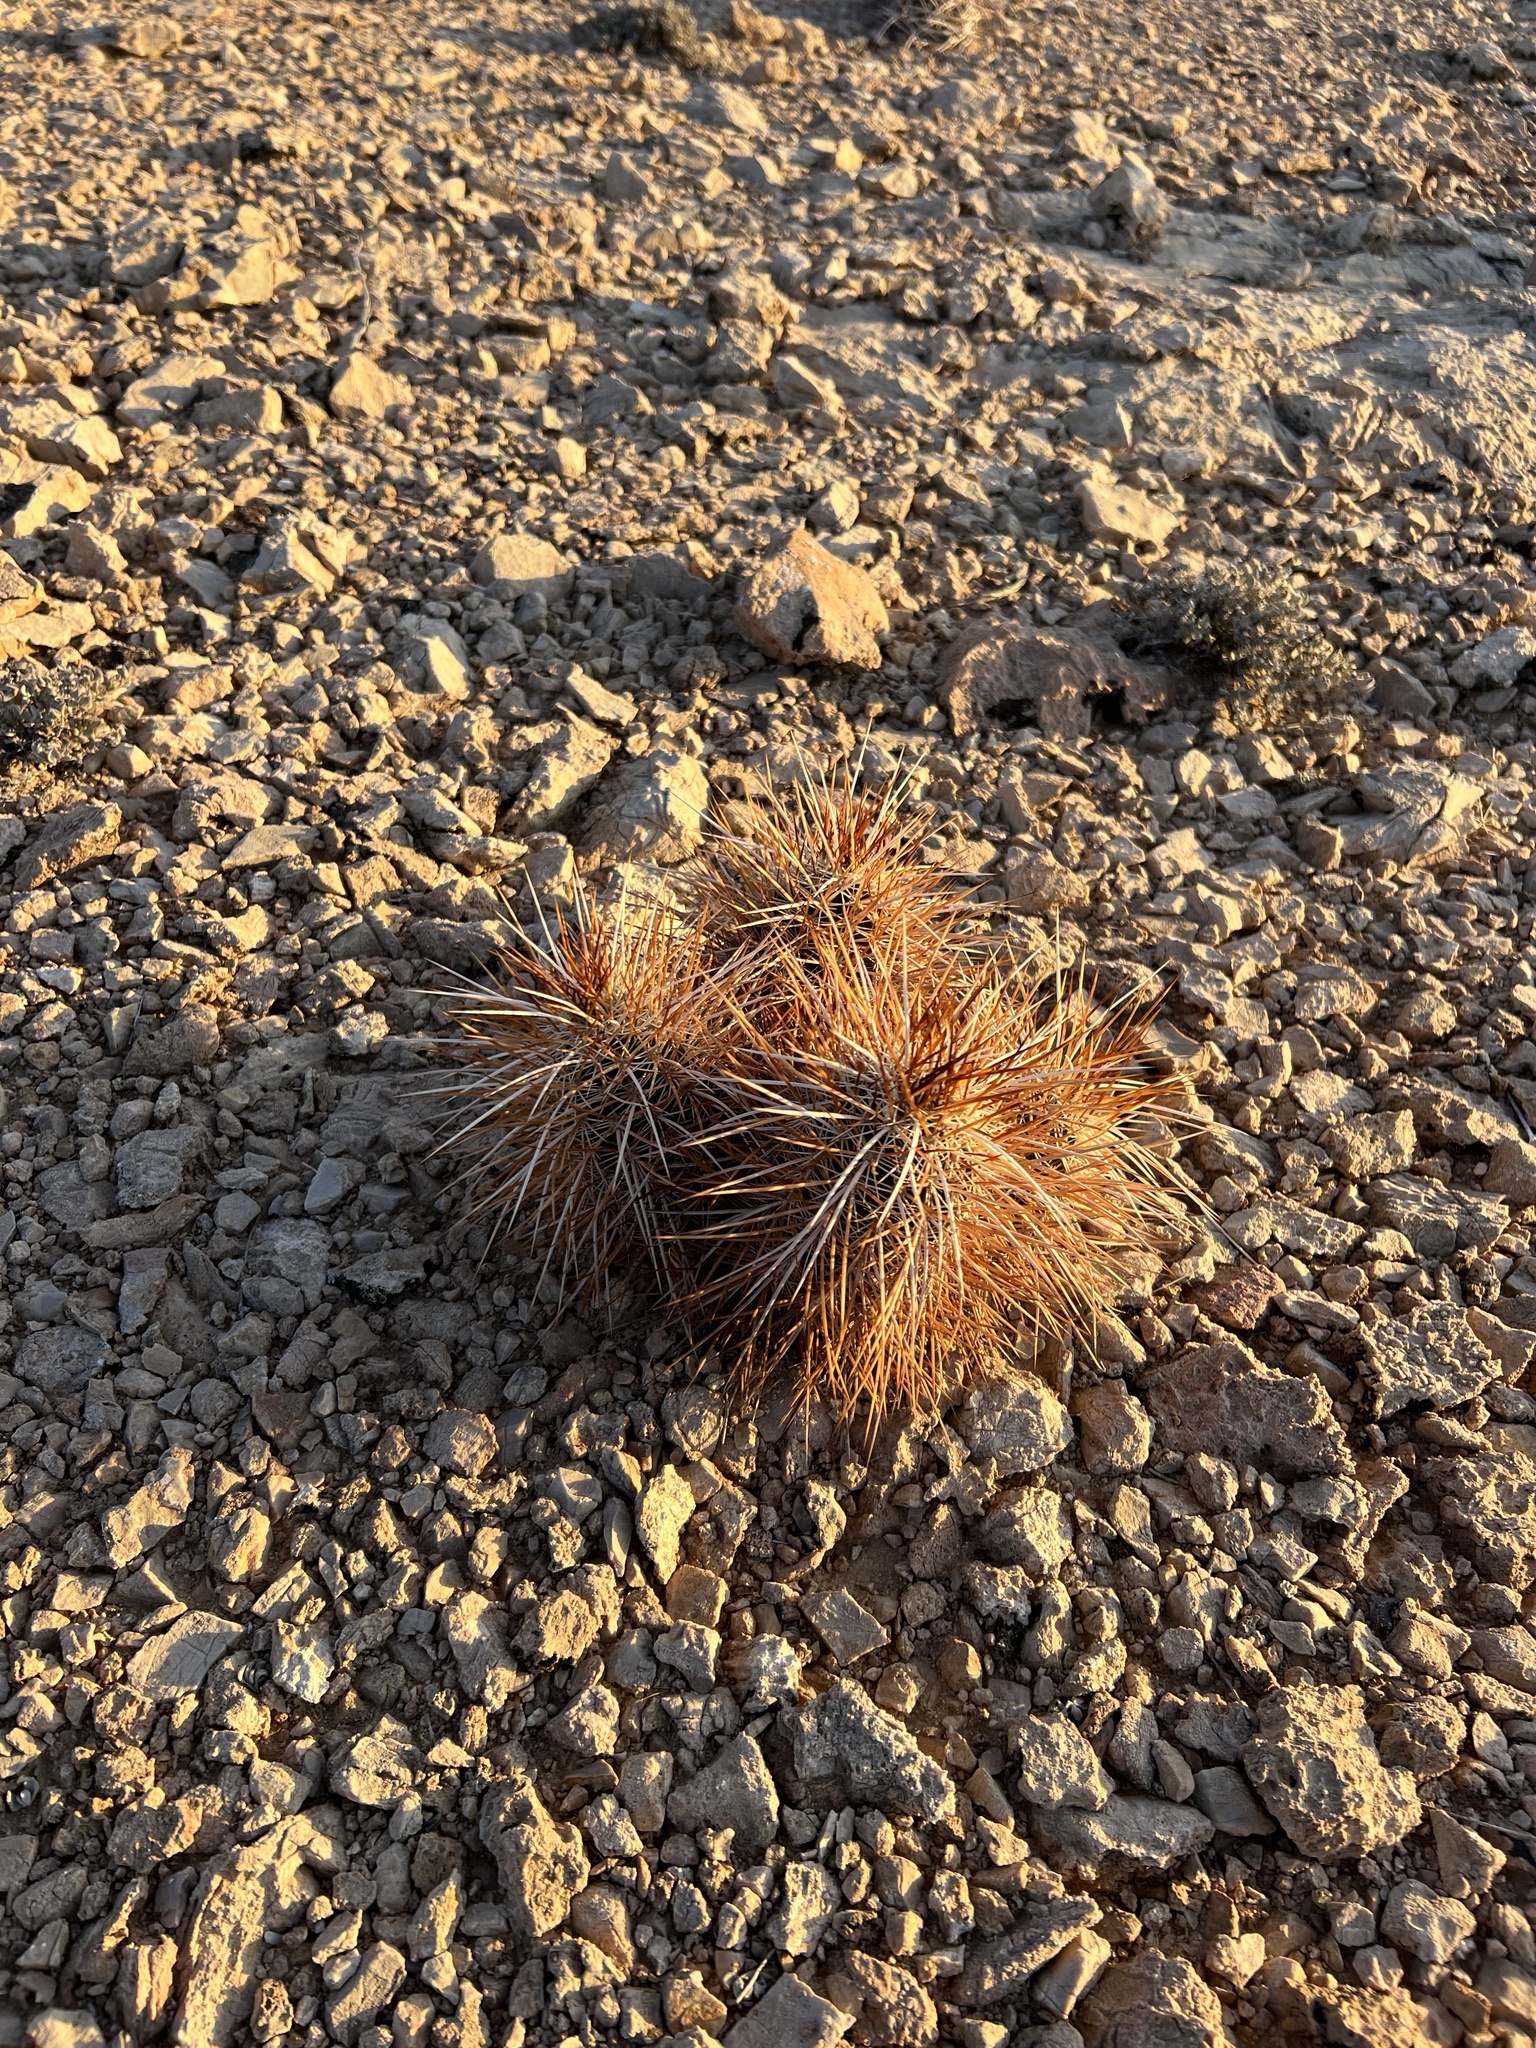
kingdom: Plantae
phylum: Tracheophyta
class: Magnoliopsida
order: Caryophyllales
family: Cactaceae
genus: Echinocereus
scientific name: Echinocereus engelmannii
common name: Engelmann's hedgehog cactus
